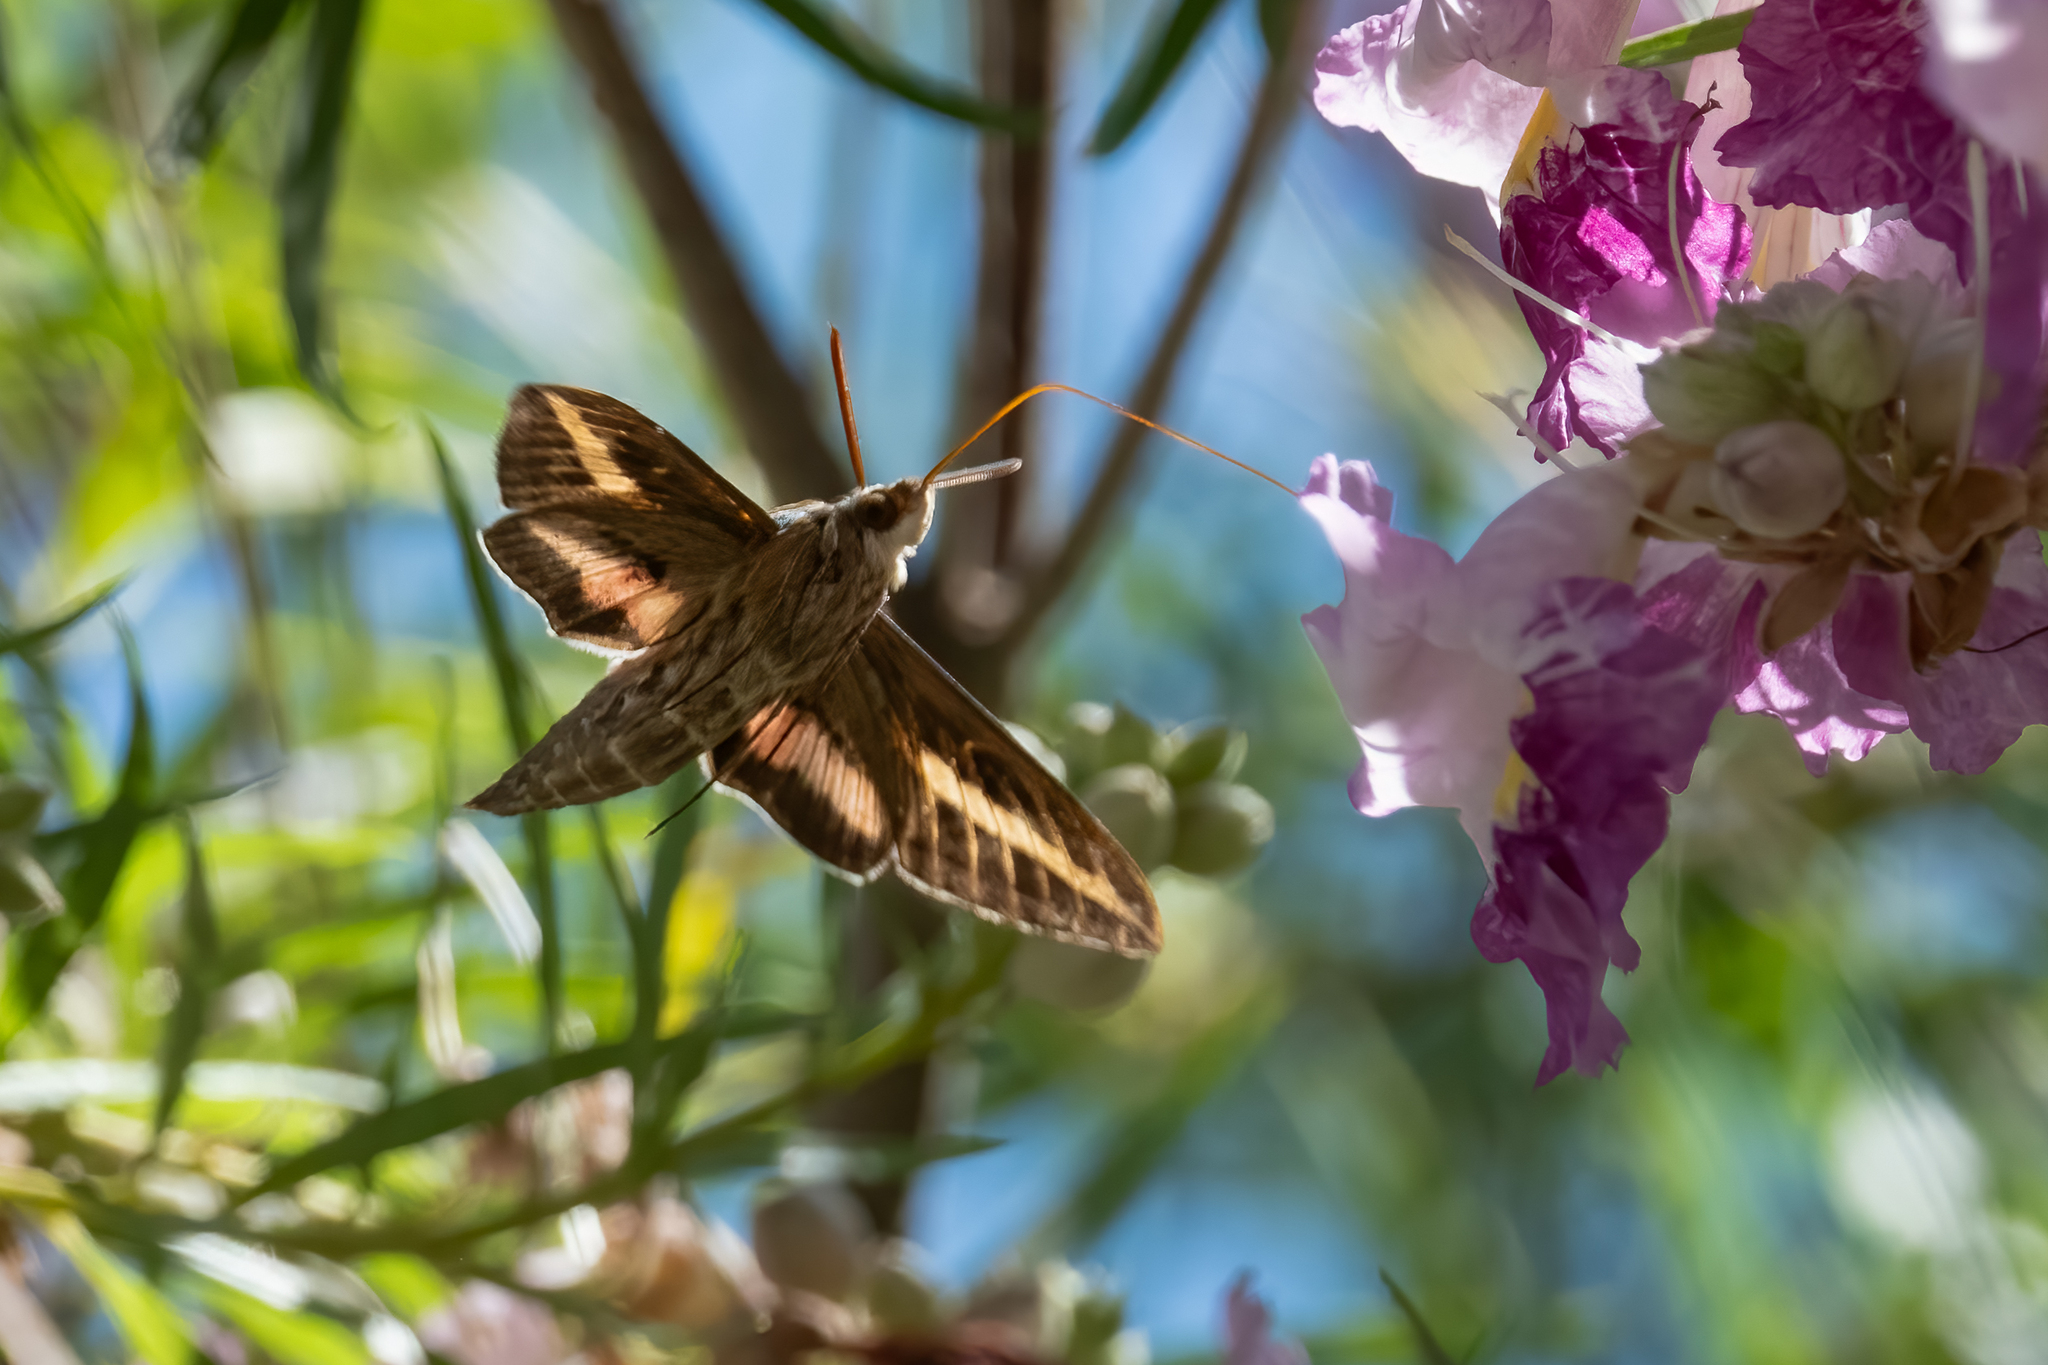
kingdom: Animalia
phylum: Arthropoda
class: Insecta
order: Lepidoptera
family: Sphingidae
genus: Hyles
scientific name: Hyles lineata
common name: White-lined sphinx
